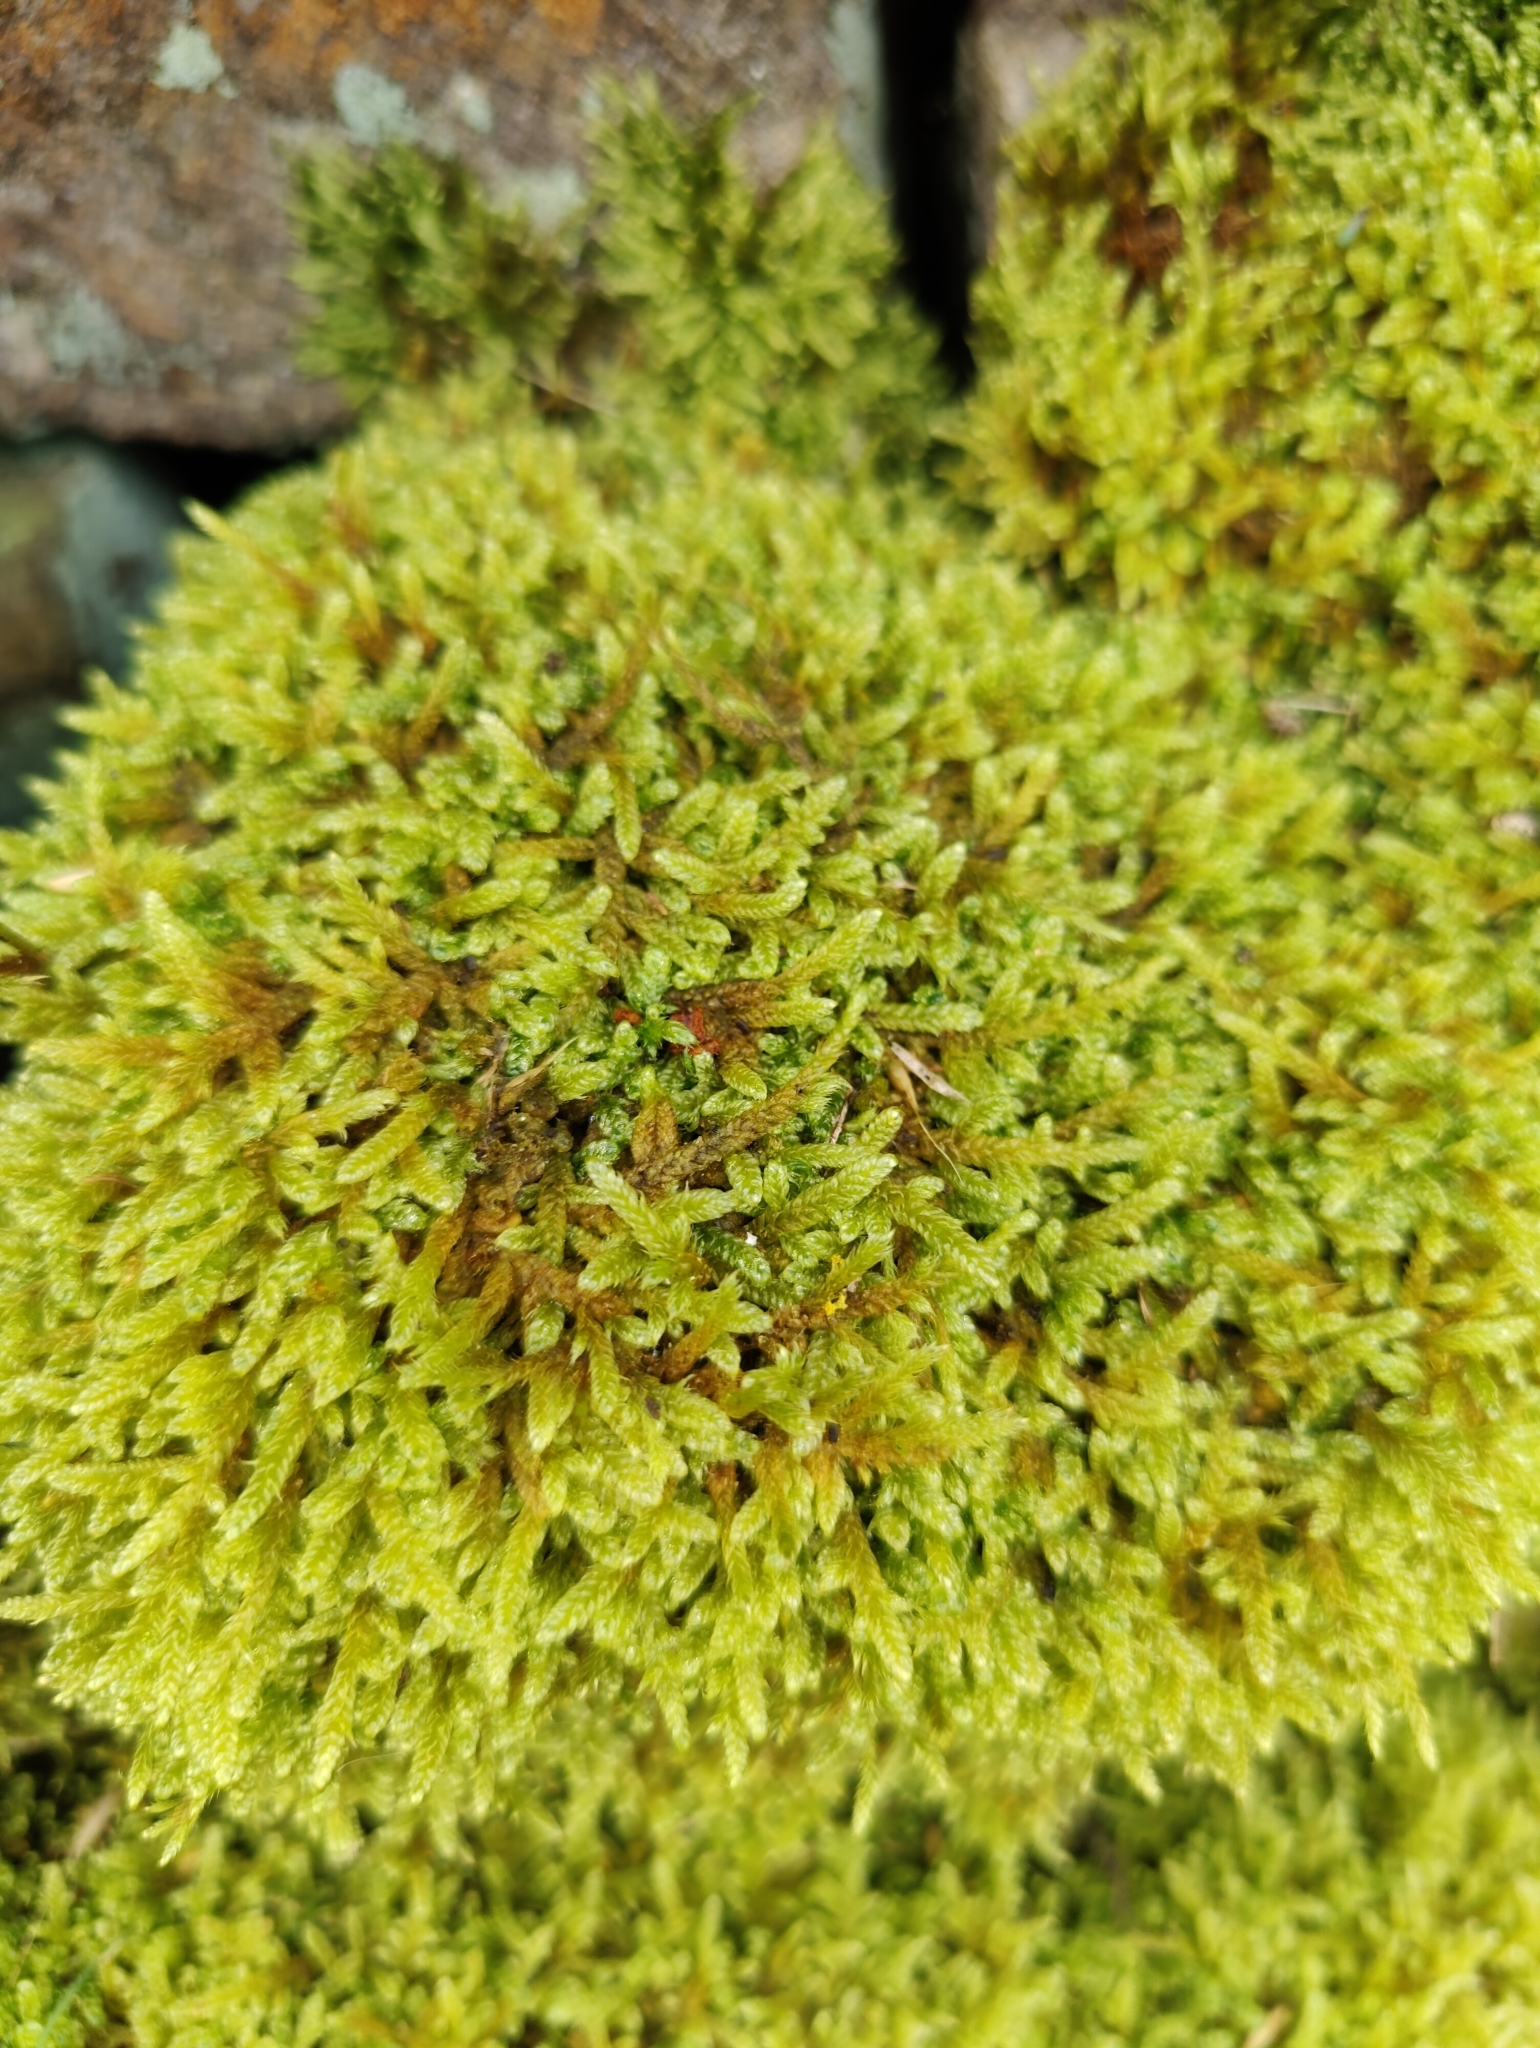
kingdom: Plantae
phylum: Bryophyta
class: Bryopsida
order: Hypnales
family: Hypnaceae
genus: Hypnum
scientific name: Hypnum cupressiforme
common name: Cypress-leaved plait-moss
